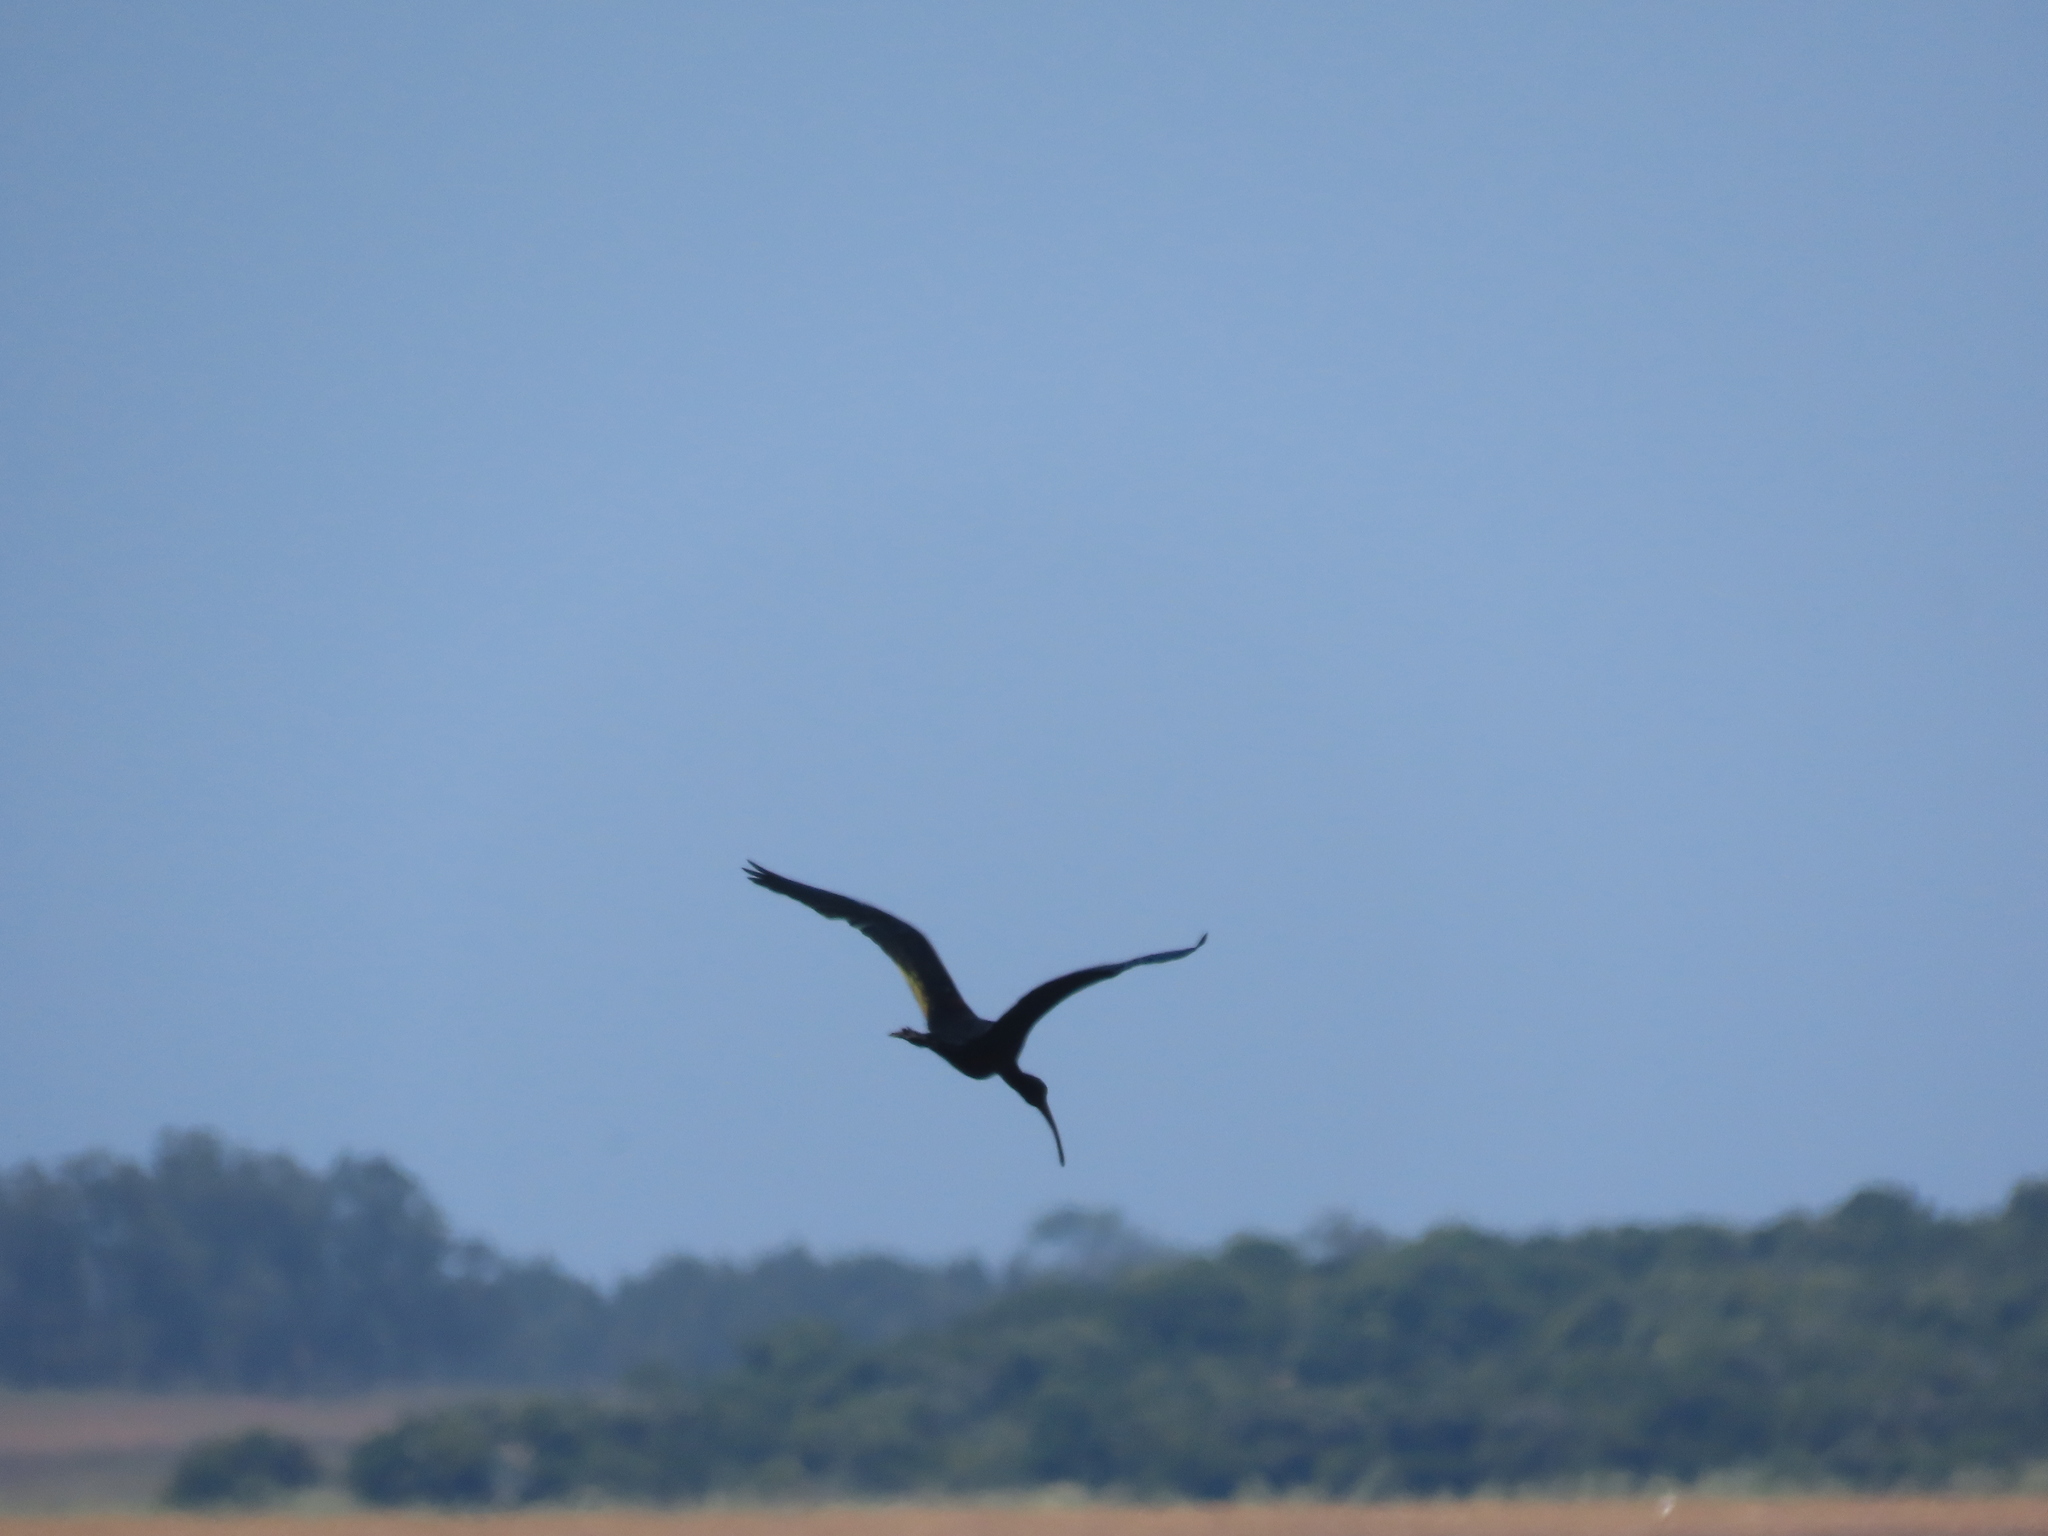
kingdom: Animalia
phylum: Chordata
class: Aves
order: Pelecaniformes
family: Threskiornithidae
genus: Plegadis
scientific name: Plegadis chihi
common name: White-faced ibis
